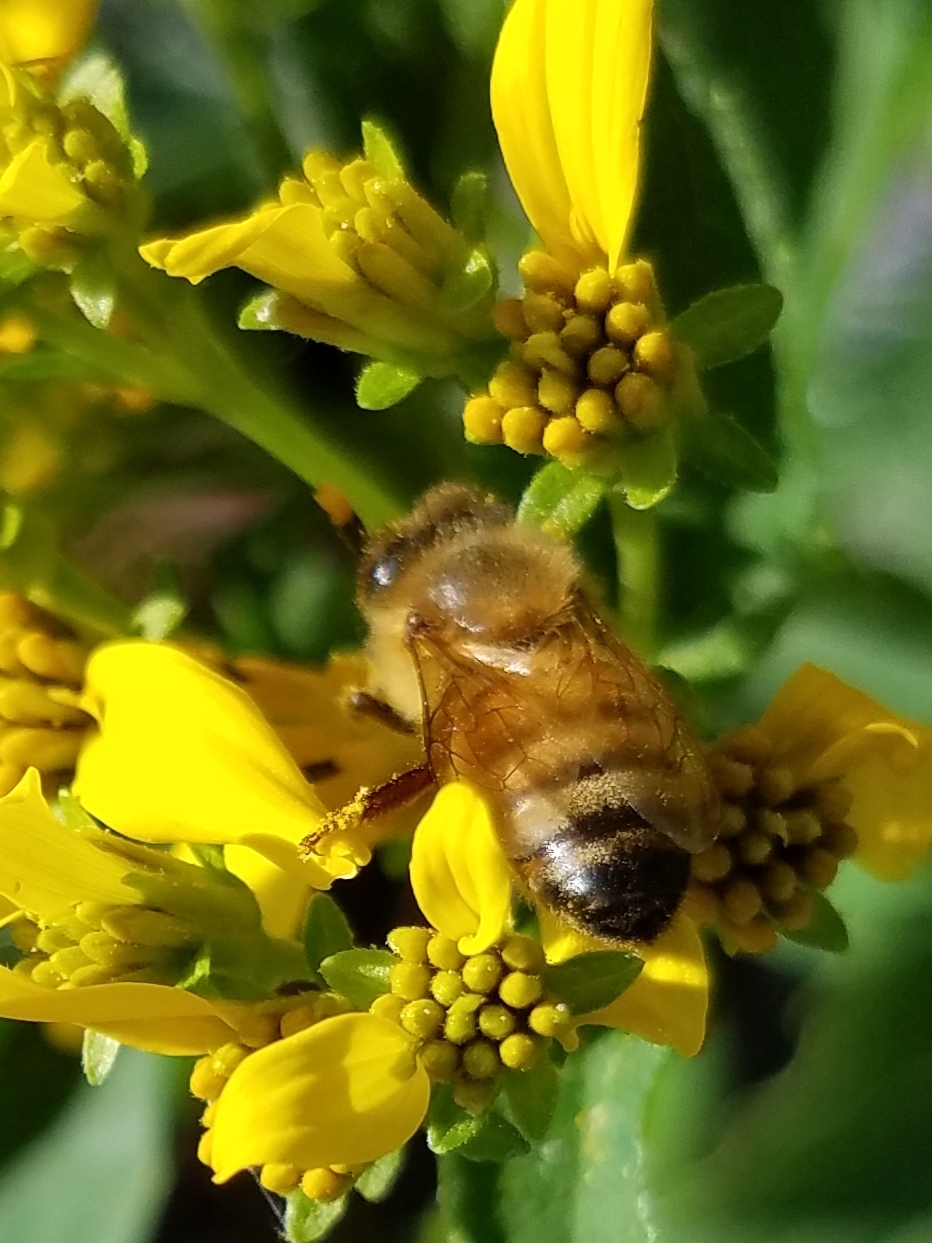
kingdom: Animalia
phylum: Arthropoda
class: Insecta
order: Hymenoptera
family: Apidae
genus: Apis
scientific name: Apis mellifera
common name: Honey bee
